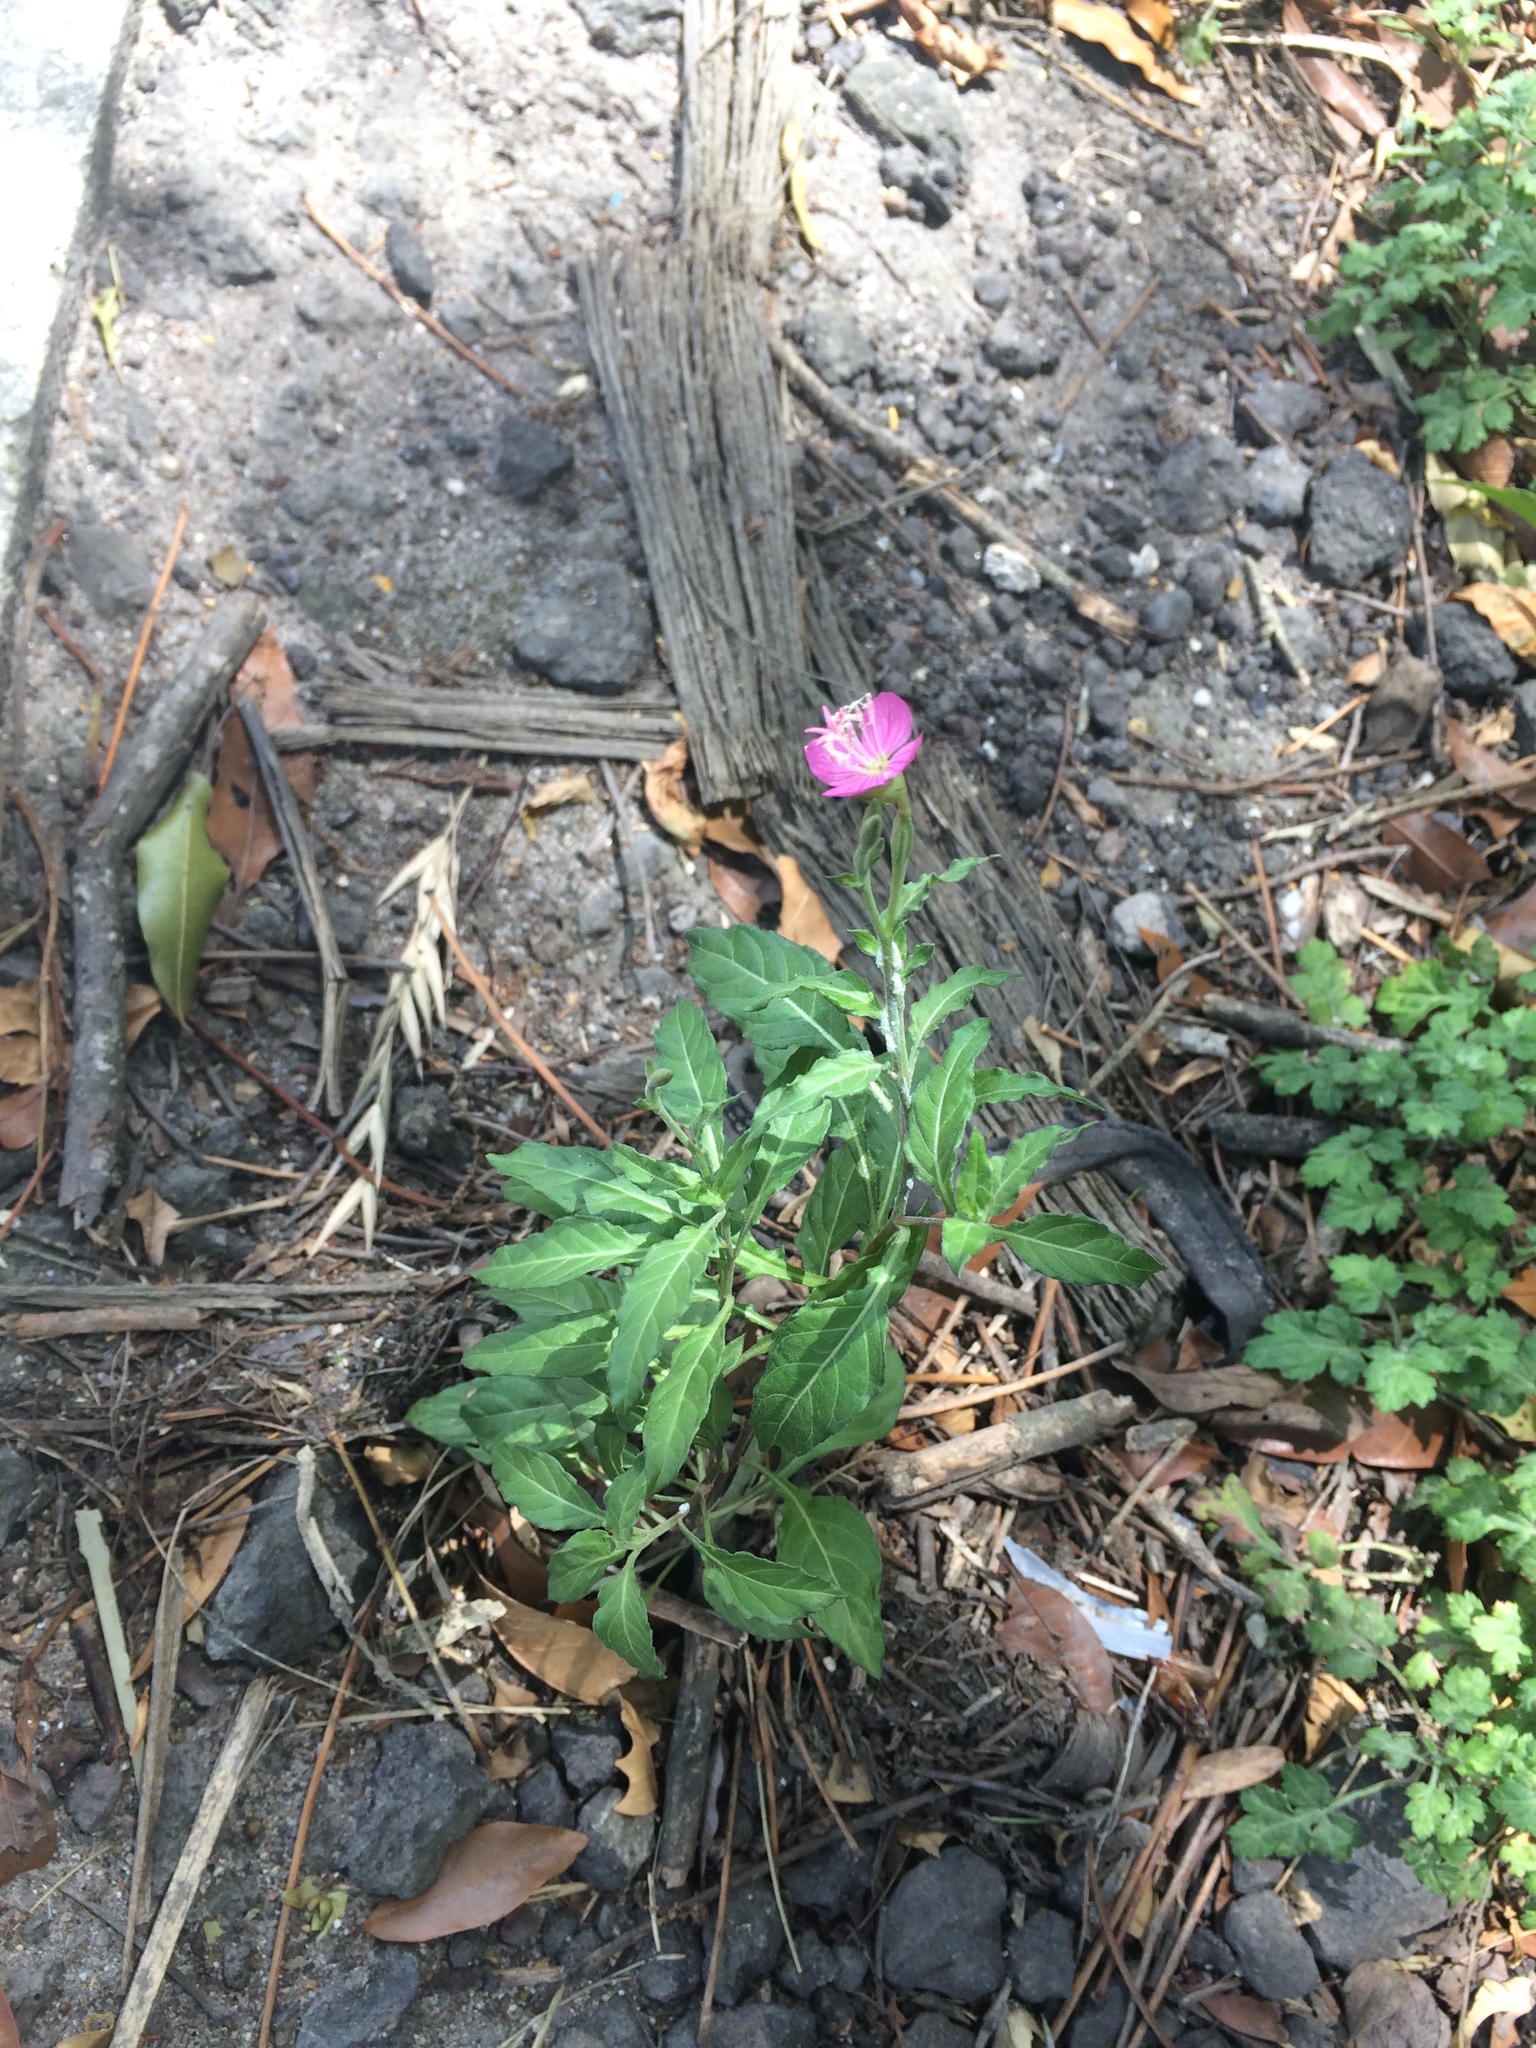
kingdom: Plantae
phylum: Tracheophyta
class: Magnoliopsida
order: Myrtales
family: Onagraceae
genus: Oenothera
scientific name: Oenothera rosea
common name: Rosy evening-primrose
